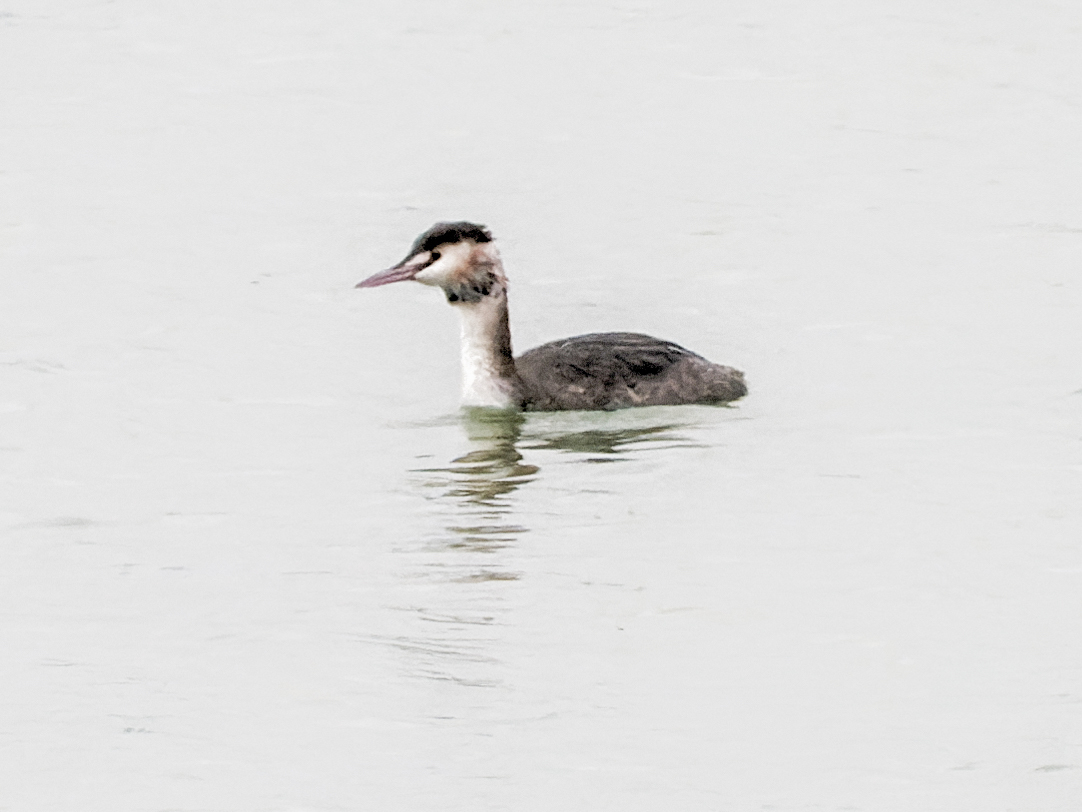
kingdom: Animalia
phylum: Chordata
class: Aves
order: Podicipediformes
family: Podicipedidae
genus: Podiceps
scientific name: Podiceps cristatus
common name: Great crested grebe
